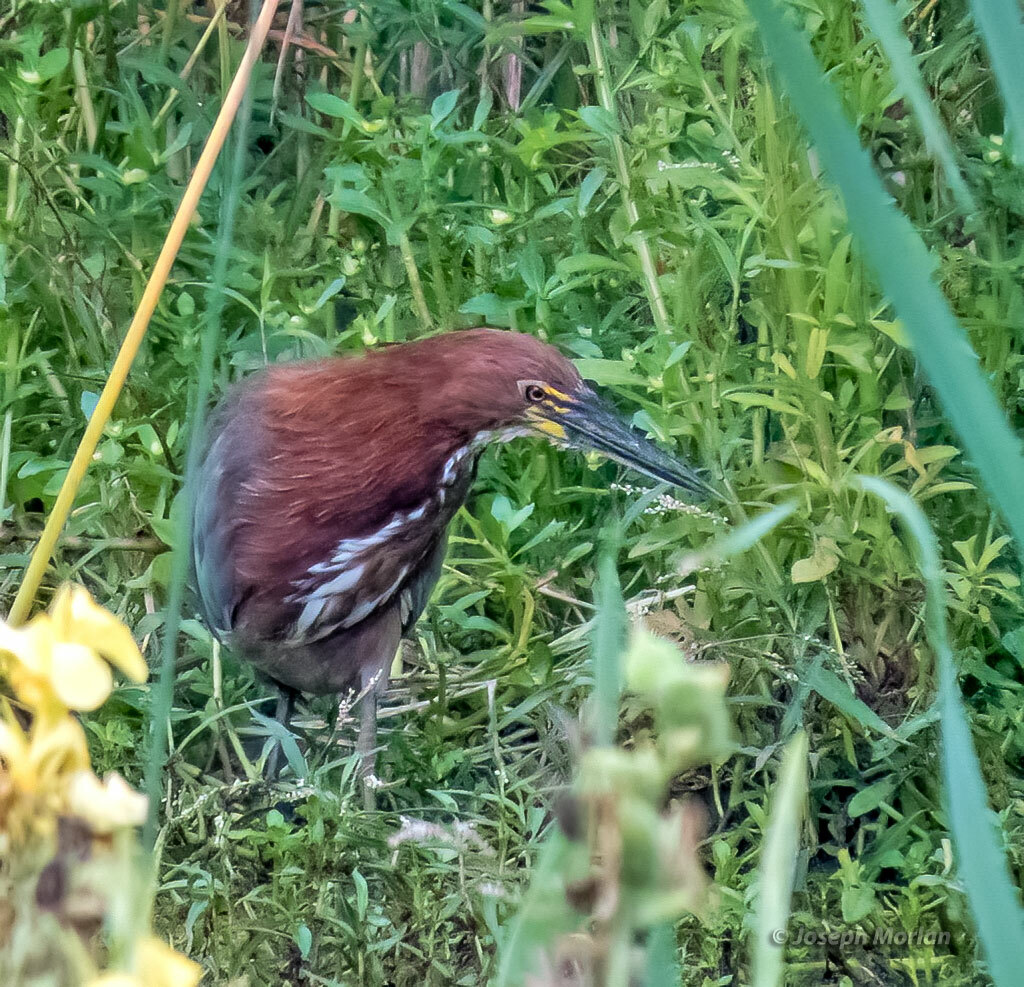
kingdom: Animalia
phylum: Chordata
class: Aves
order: Pelecaniformes
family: Ardeidae
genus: Tigrisoma
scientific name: Tigrisoma lineatum
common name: Rufescent tiger-heron
